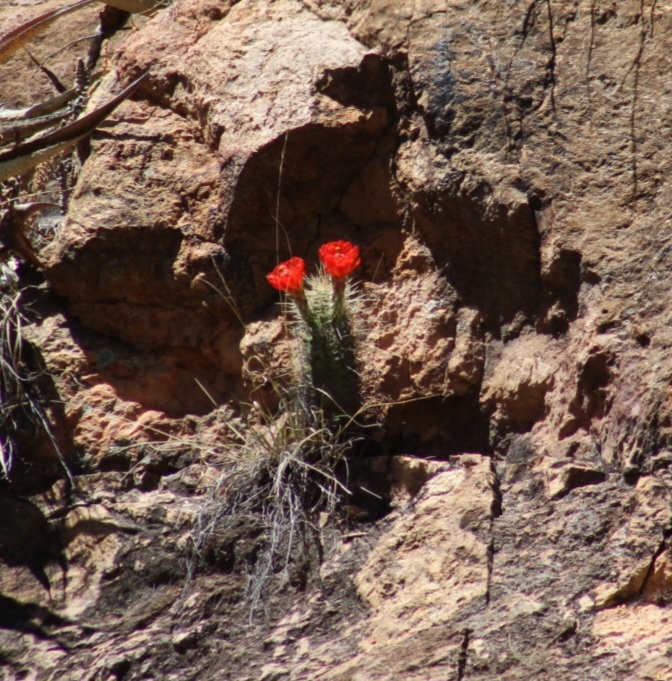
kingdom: Plantae
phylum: Tracheophyta
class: Magnoliopsida
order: Caryophyllales
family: Cactaceae
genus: Echinocereus
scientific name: Echinocereus coccineus
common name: Scarlet hedgehog cactus
